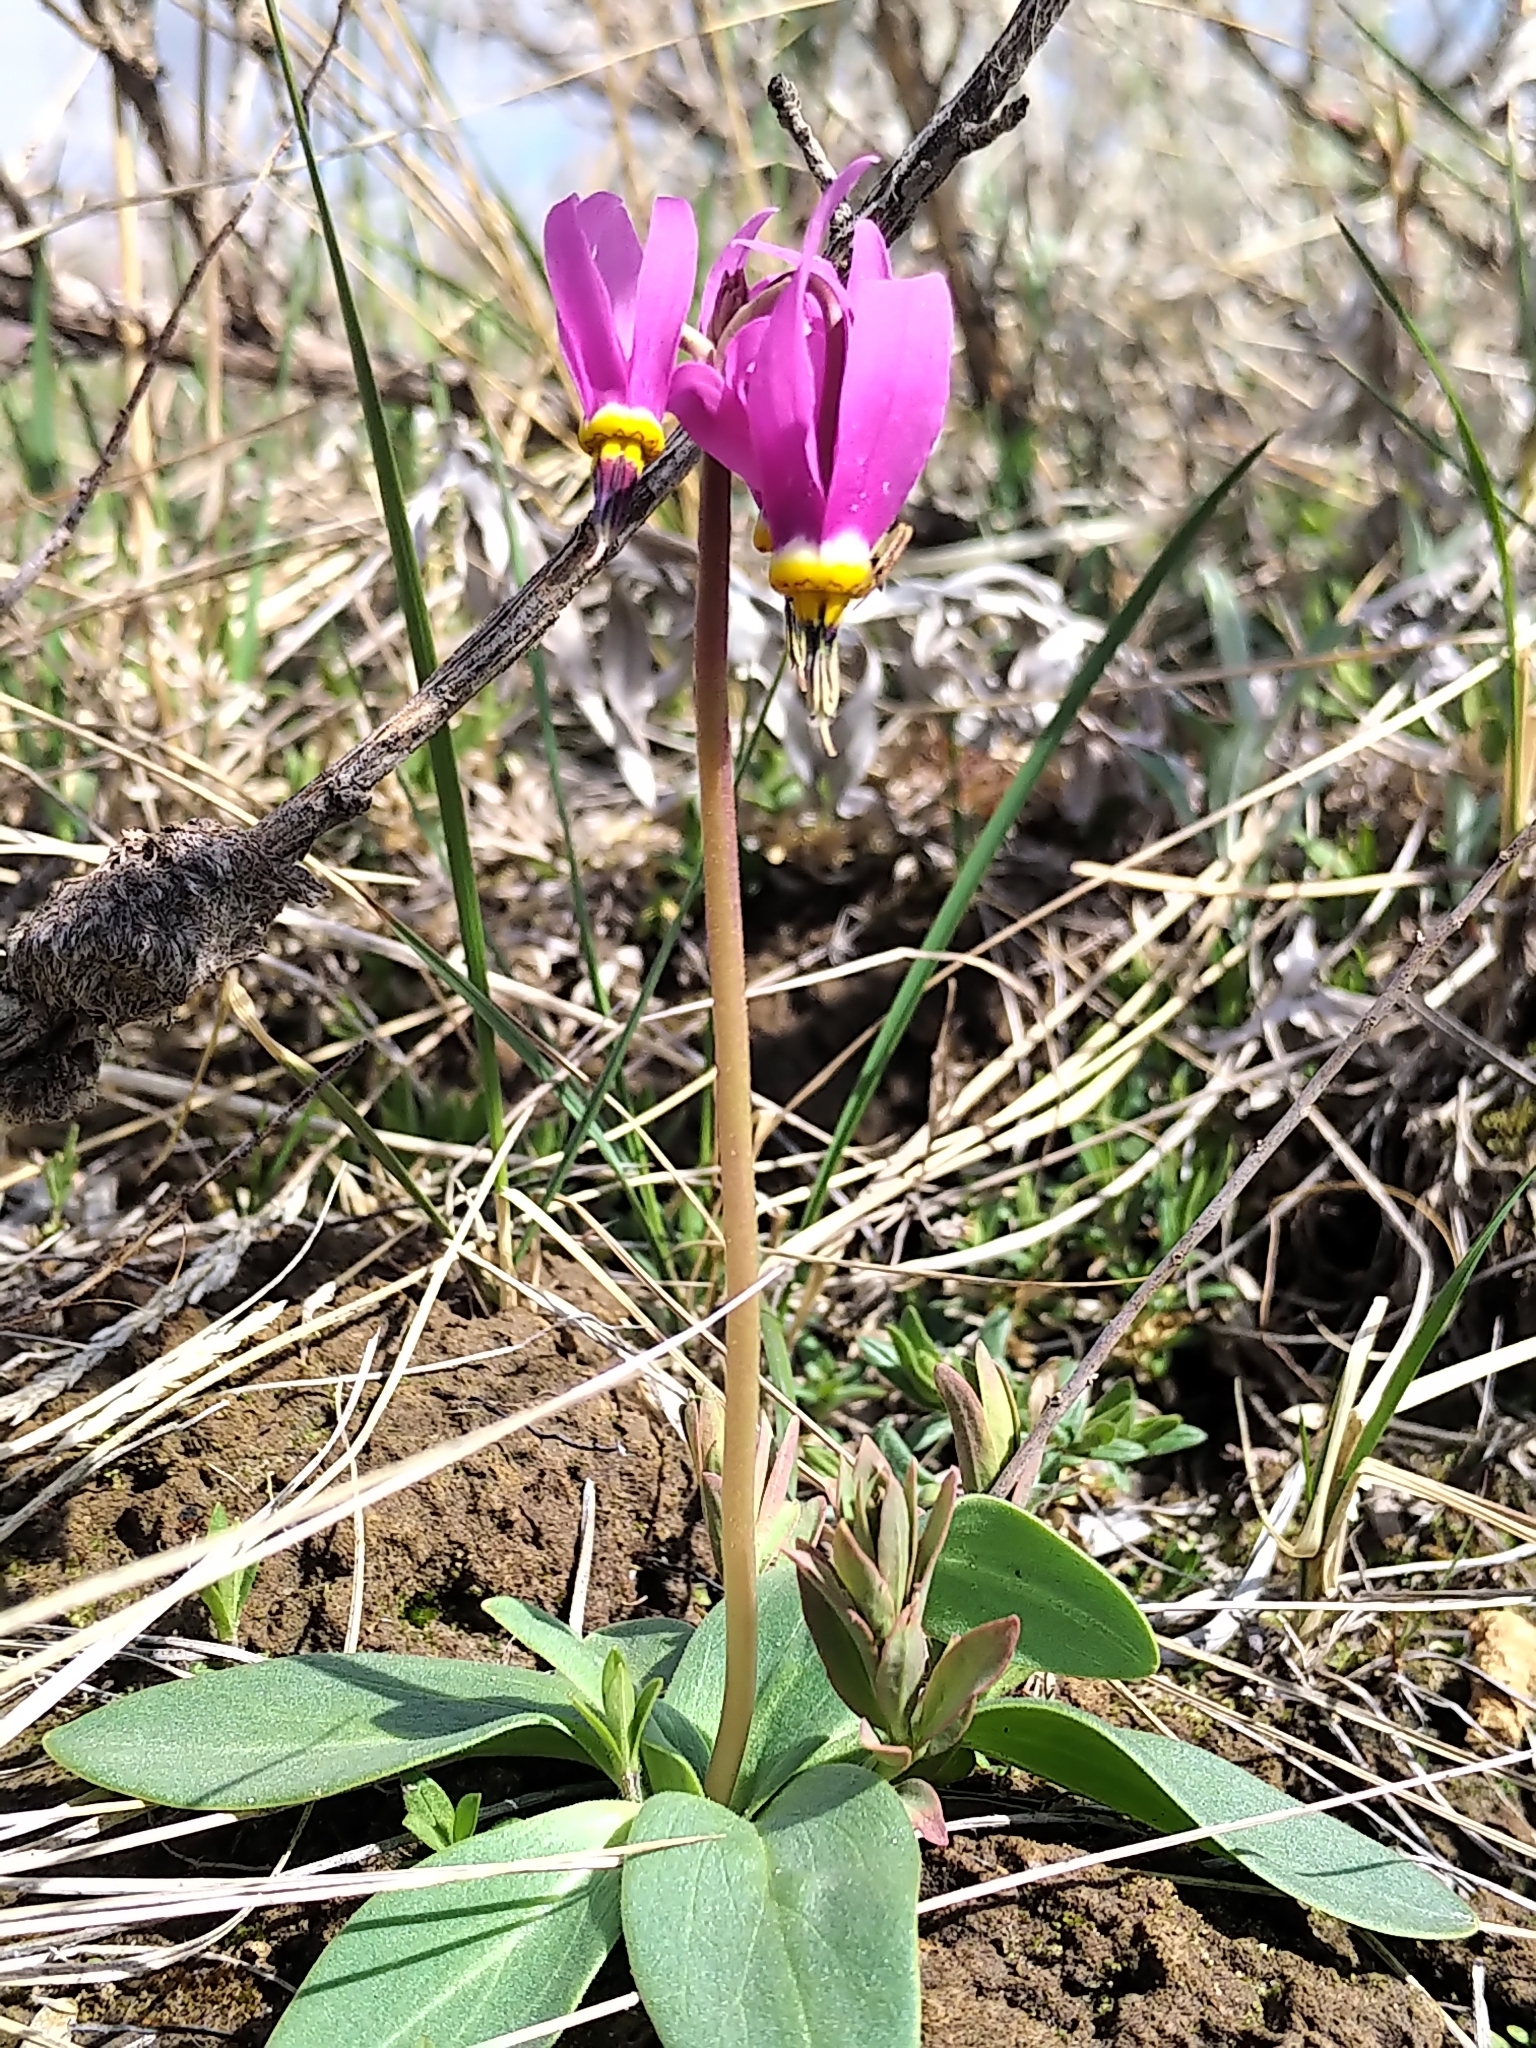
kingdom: Plantae
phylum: Tracheophyta
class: Magnoliopsida
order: Ericales
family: Primulaceae
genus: Dodecatheon
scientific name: Dodecatheon conjugens
